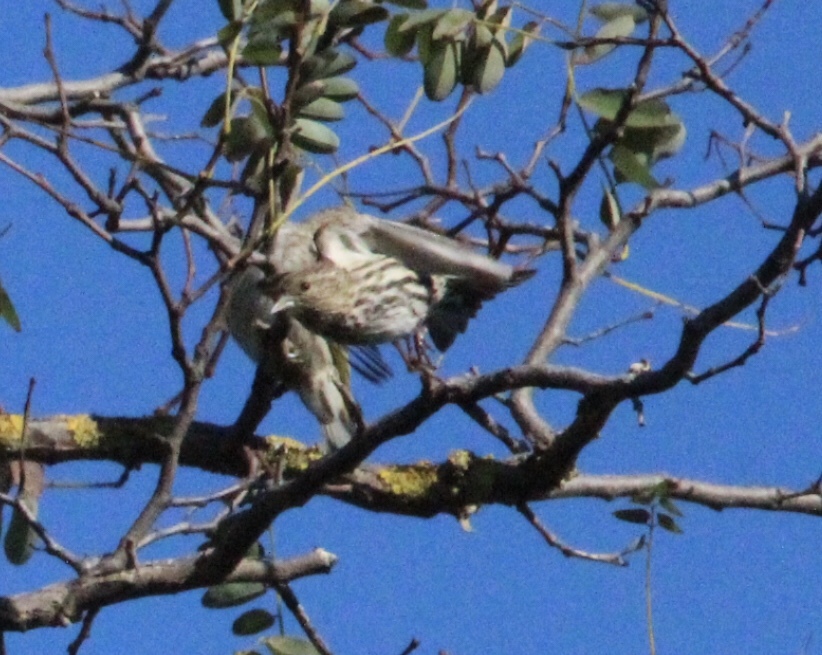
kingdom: Animalia
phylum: Chordata
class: Aves
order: Passeriformes
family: Fringillidae
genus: Spinus
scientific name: Spinus pinus
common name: Pine siskin
